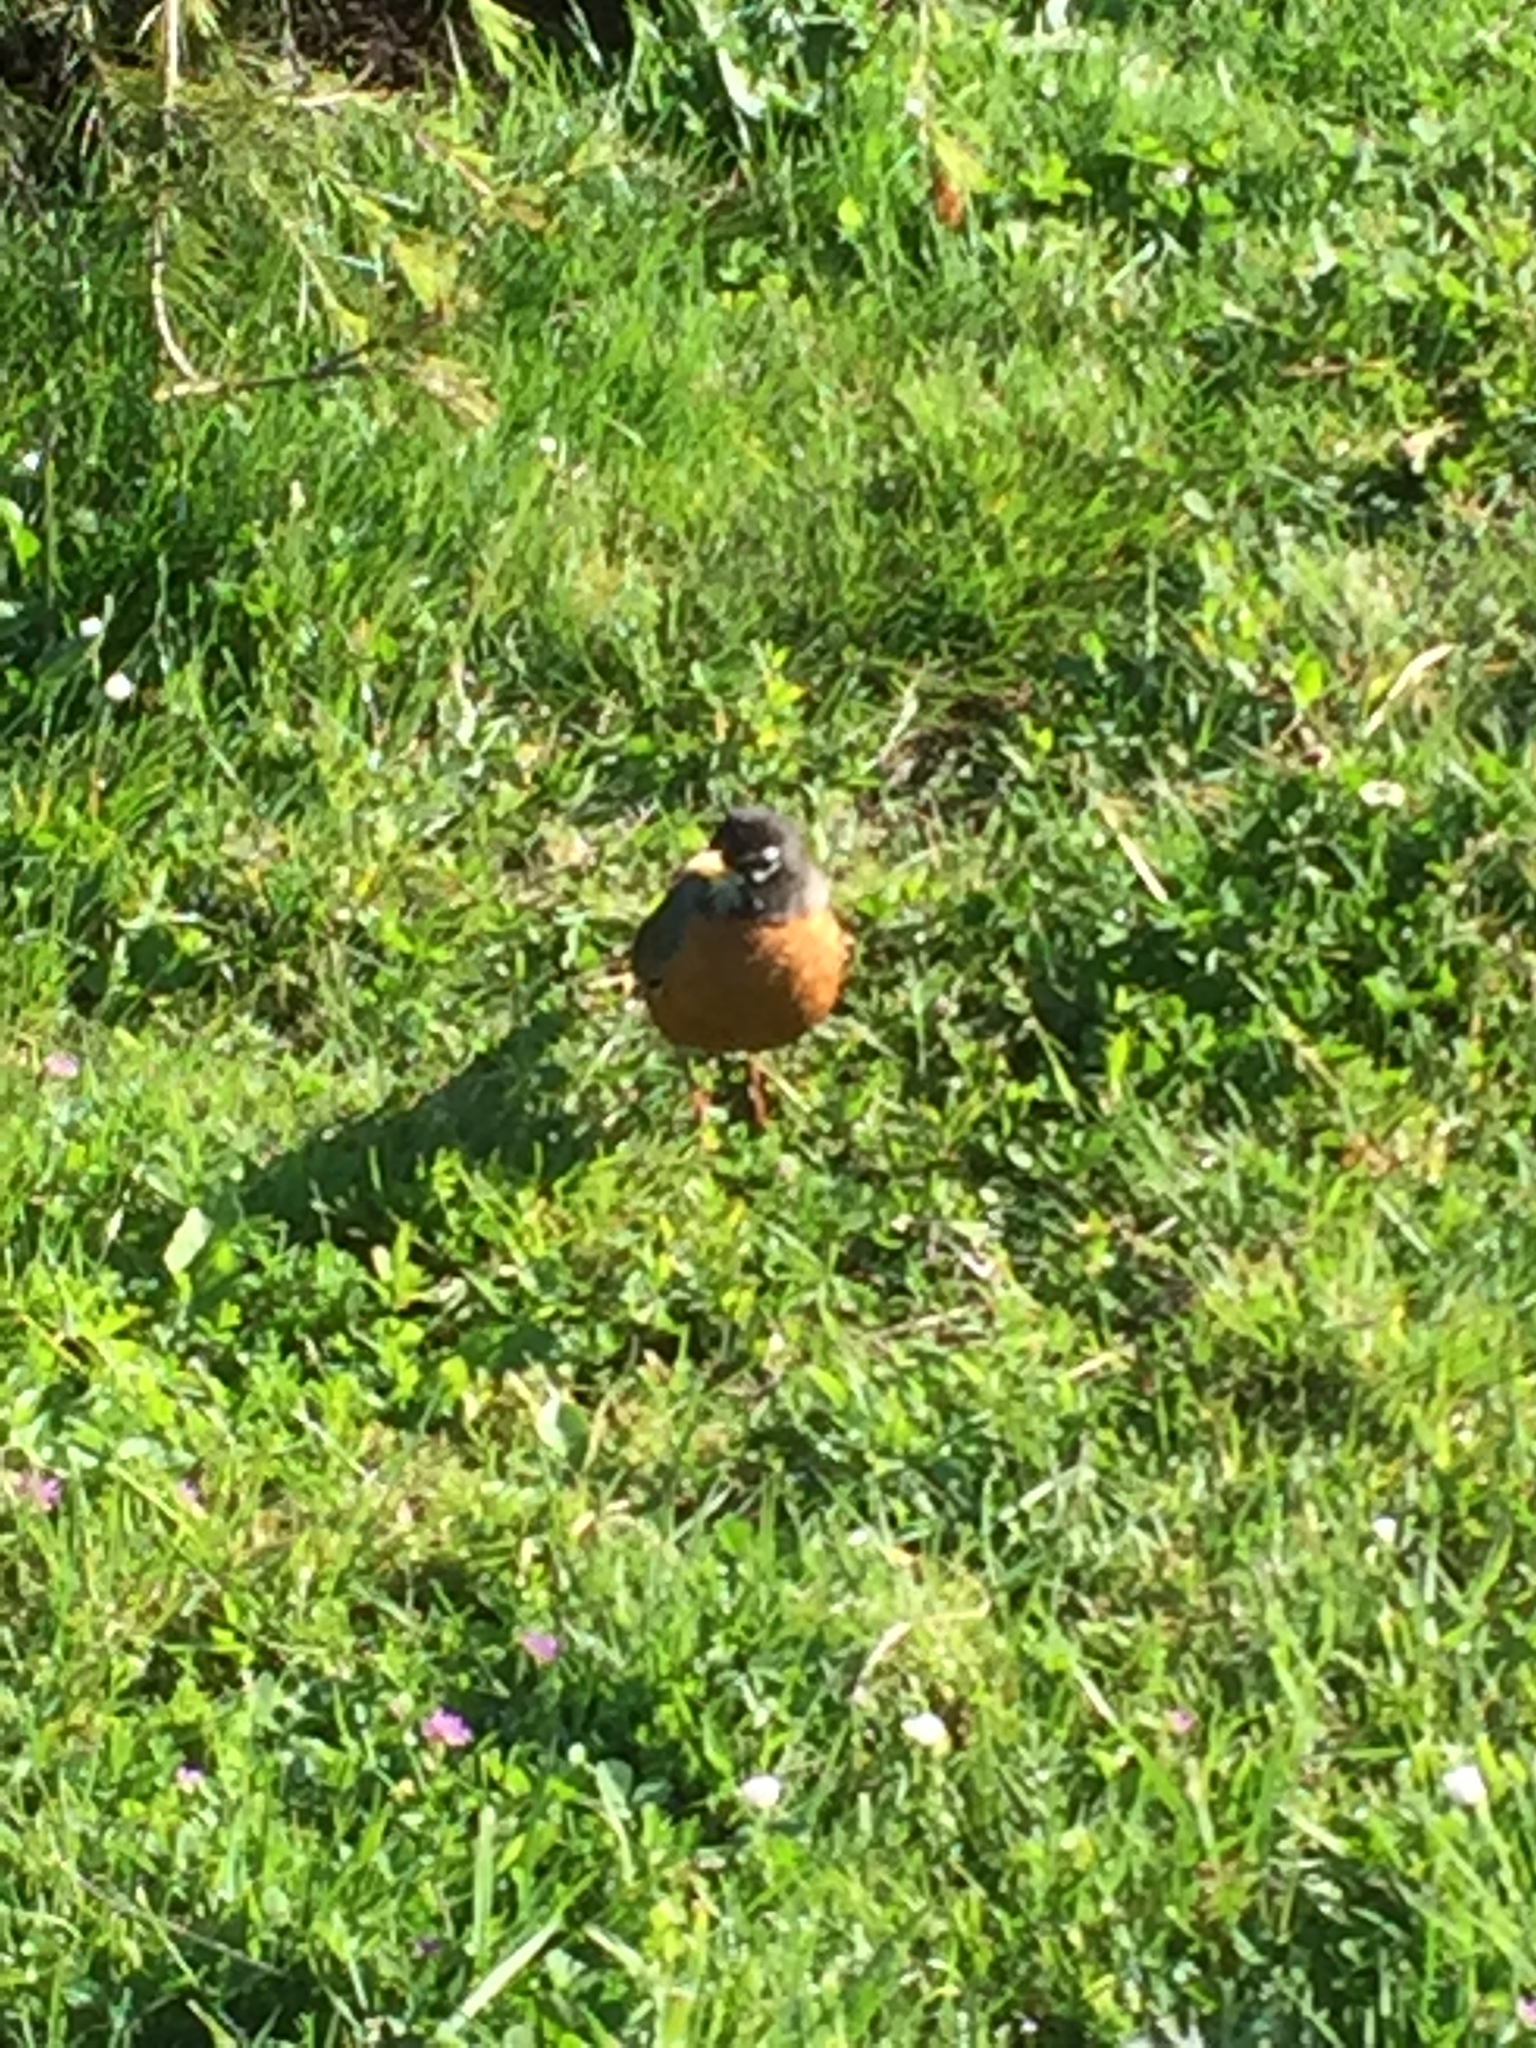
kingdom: Animalia
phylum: Chordata
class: Aves
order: Passeriformes
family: Turdidae
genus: Turdus
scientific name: Turdus migratorius
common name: American robin
